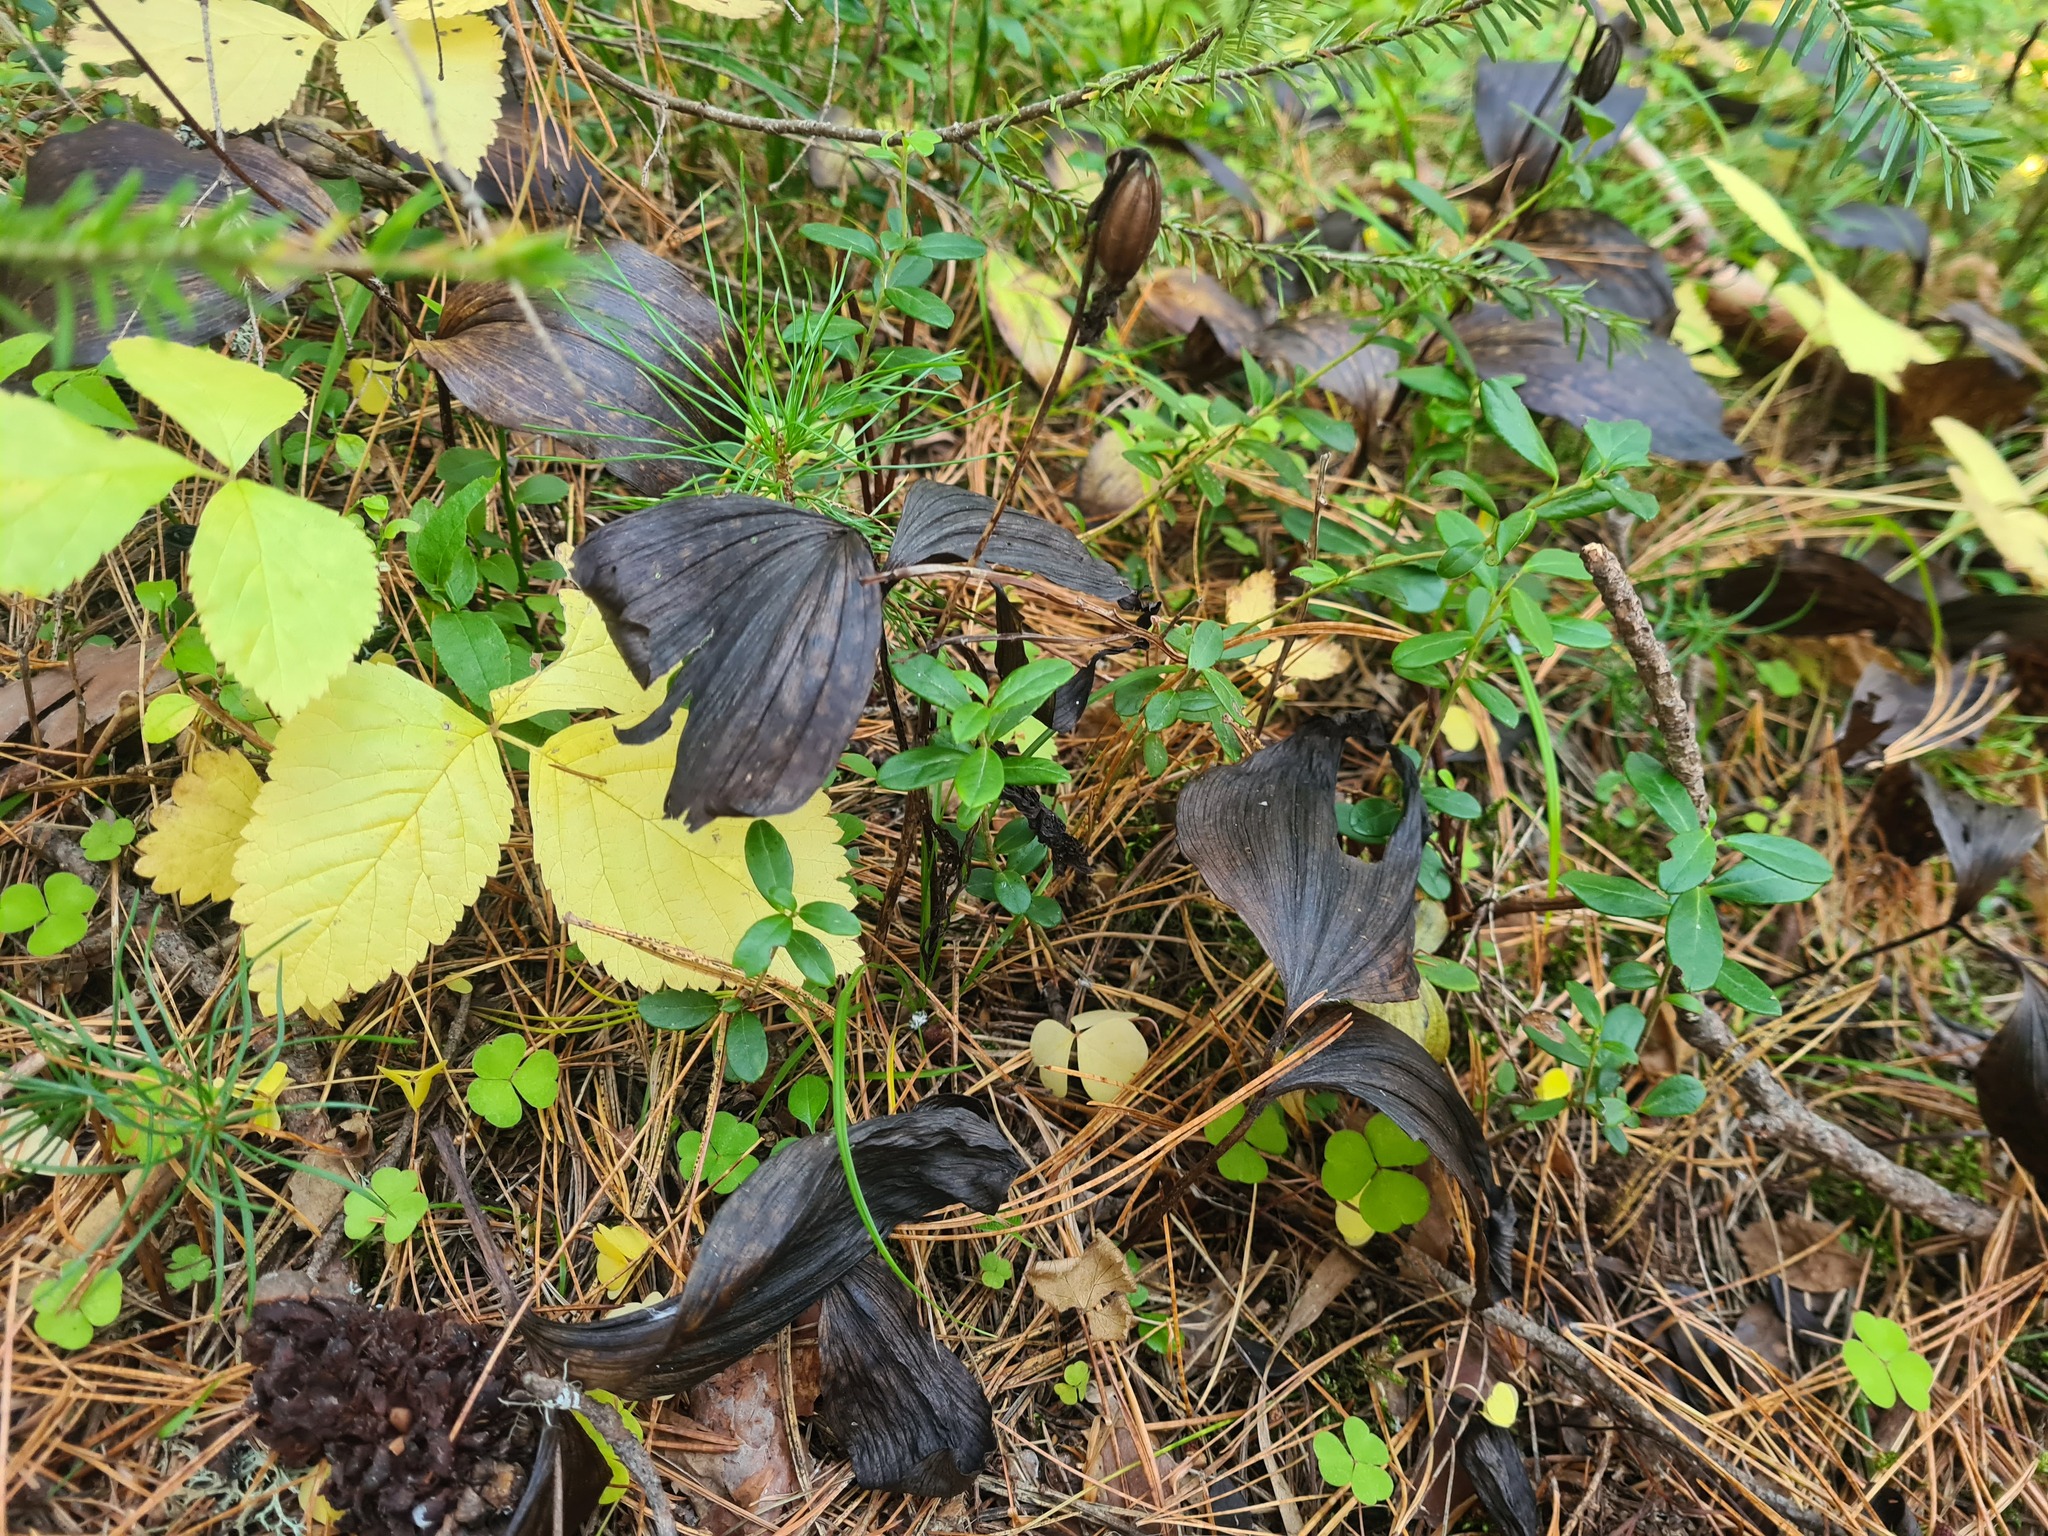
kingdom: Plantae
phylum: Tracheophyta
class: Liliopsida
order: Asparagales
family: Orchidaceae
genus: Cypripedium
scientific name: Cypripedium guttatum
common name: Pink lady slipper
